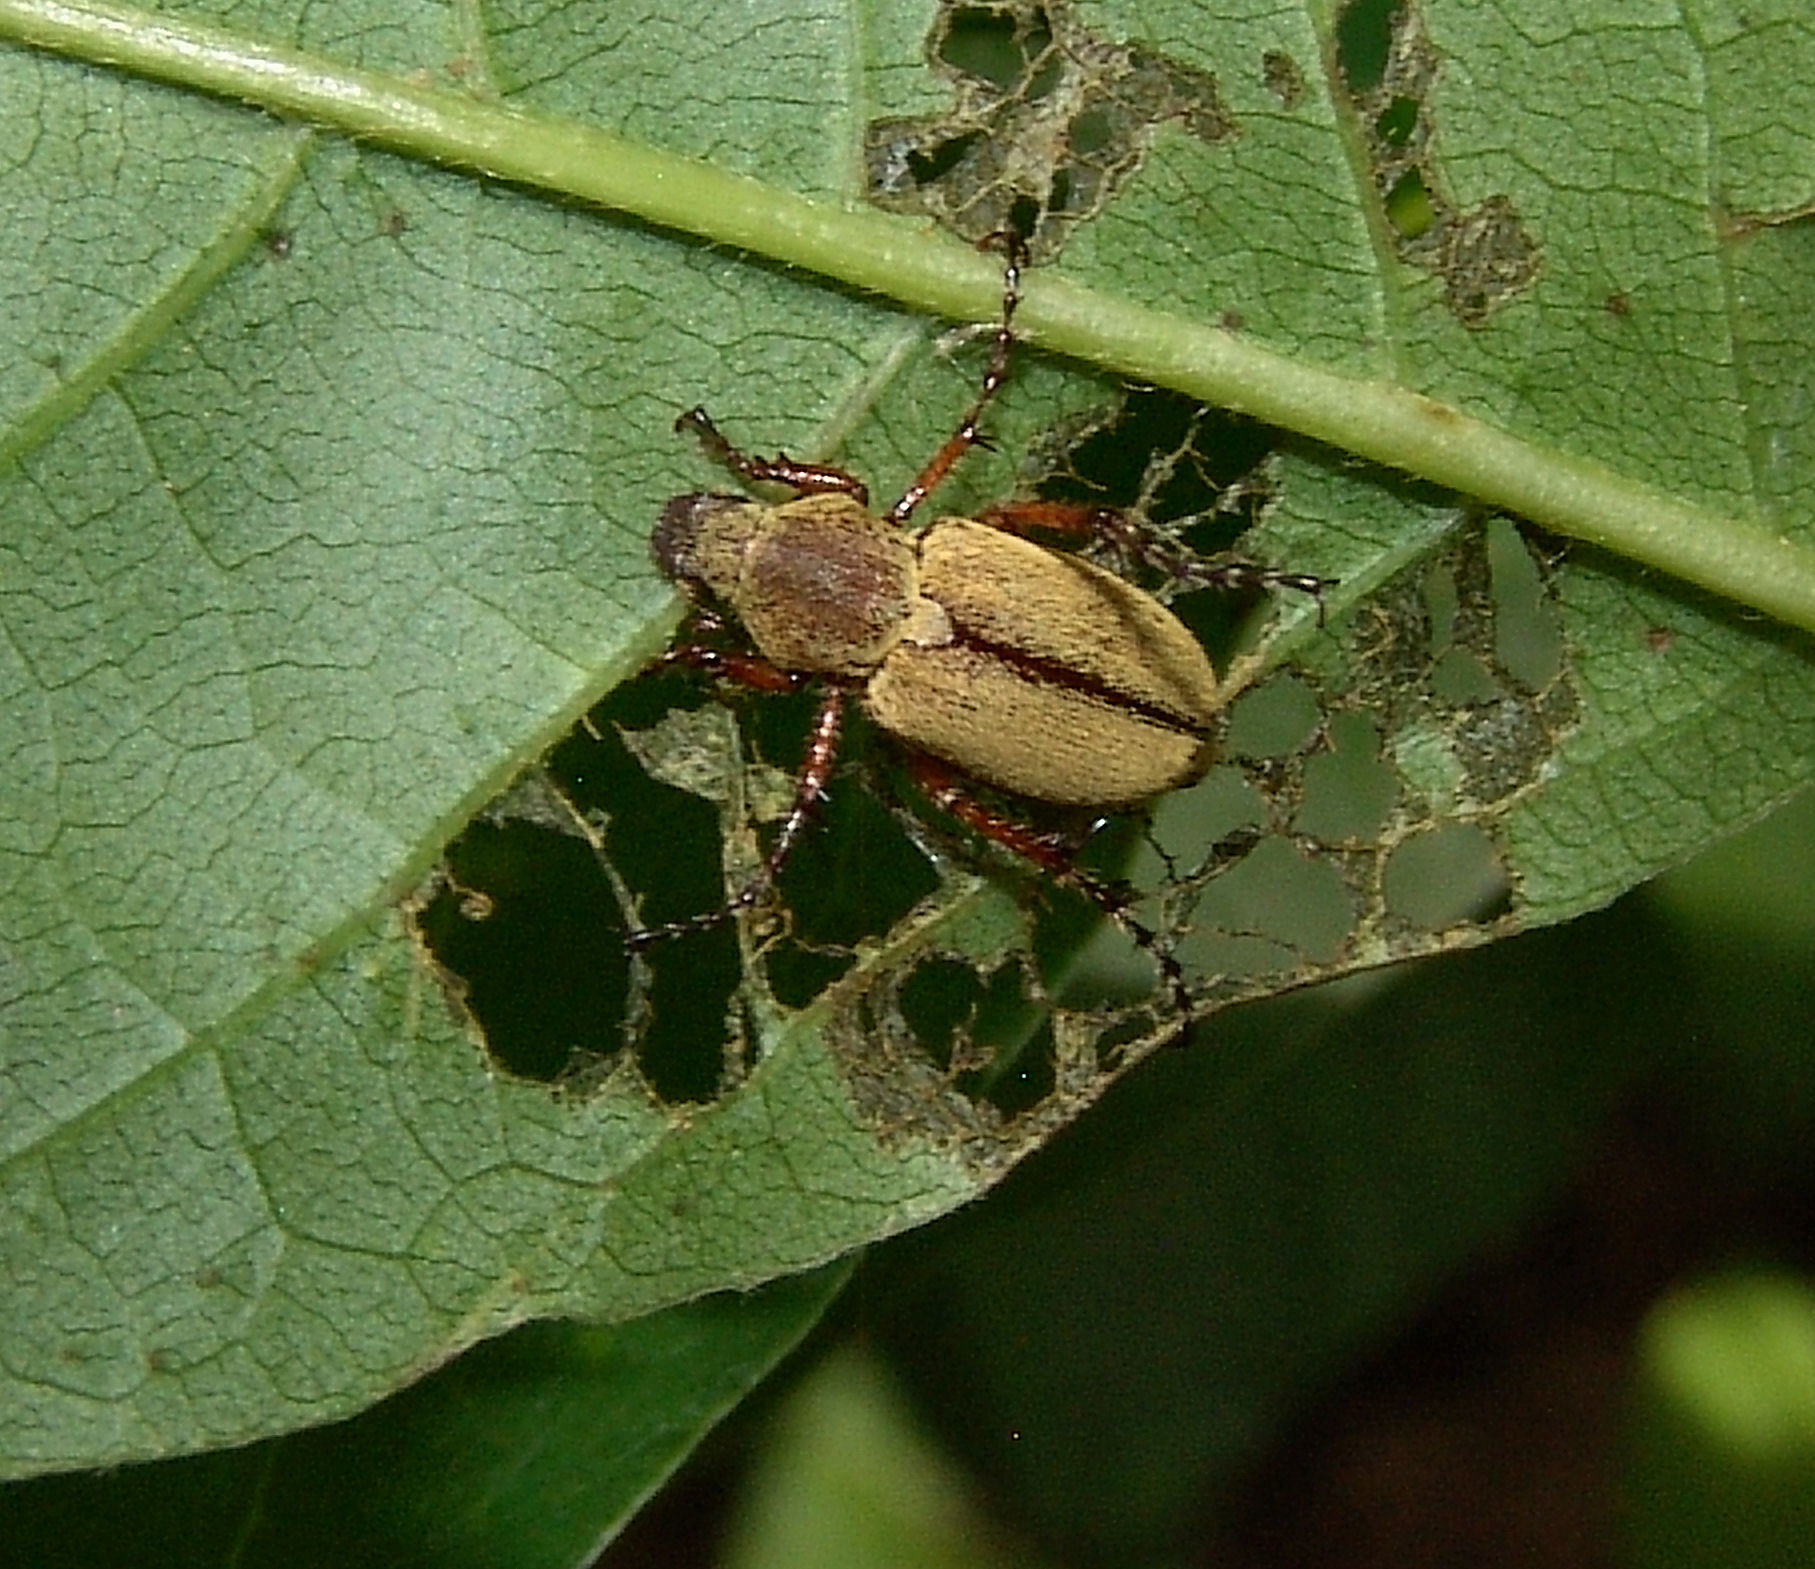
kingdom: Animalia
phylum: Arthropoda
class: Insecta
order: Coleoptera
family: Scarabaeidae
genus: Macrodactylus
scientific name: Macrodactylus subspinosus
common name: American rose chafer
